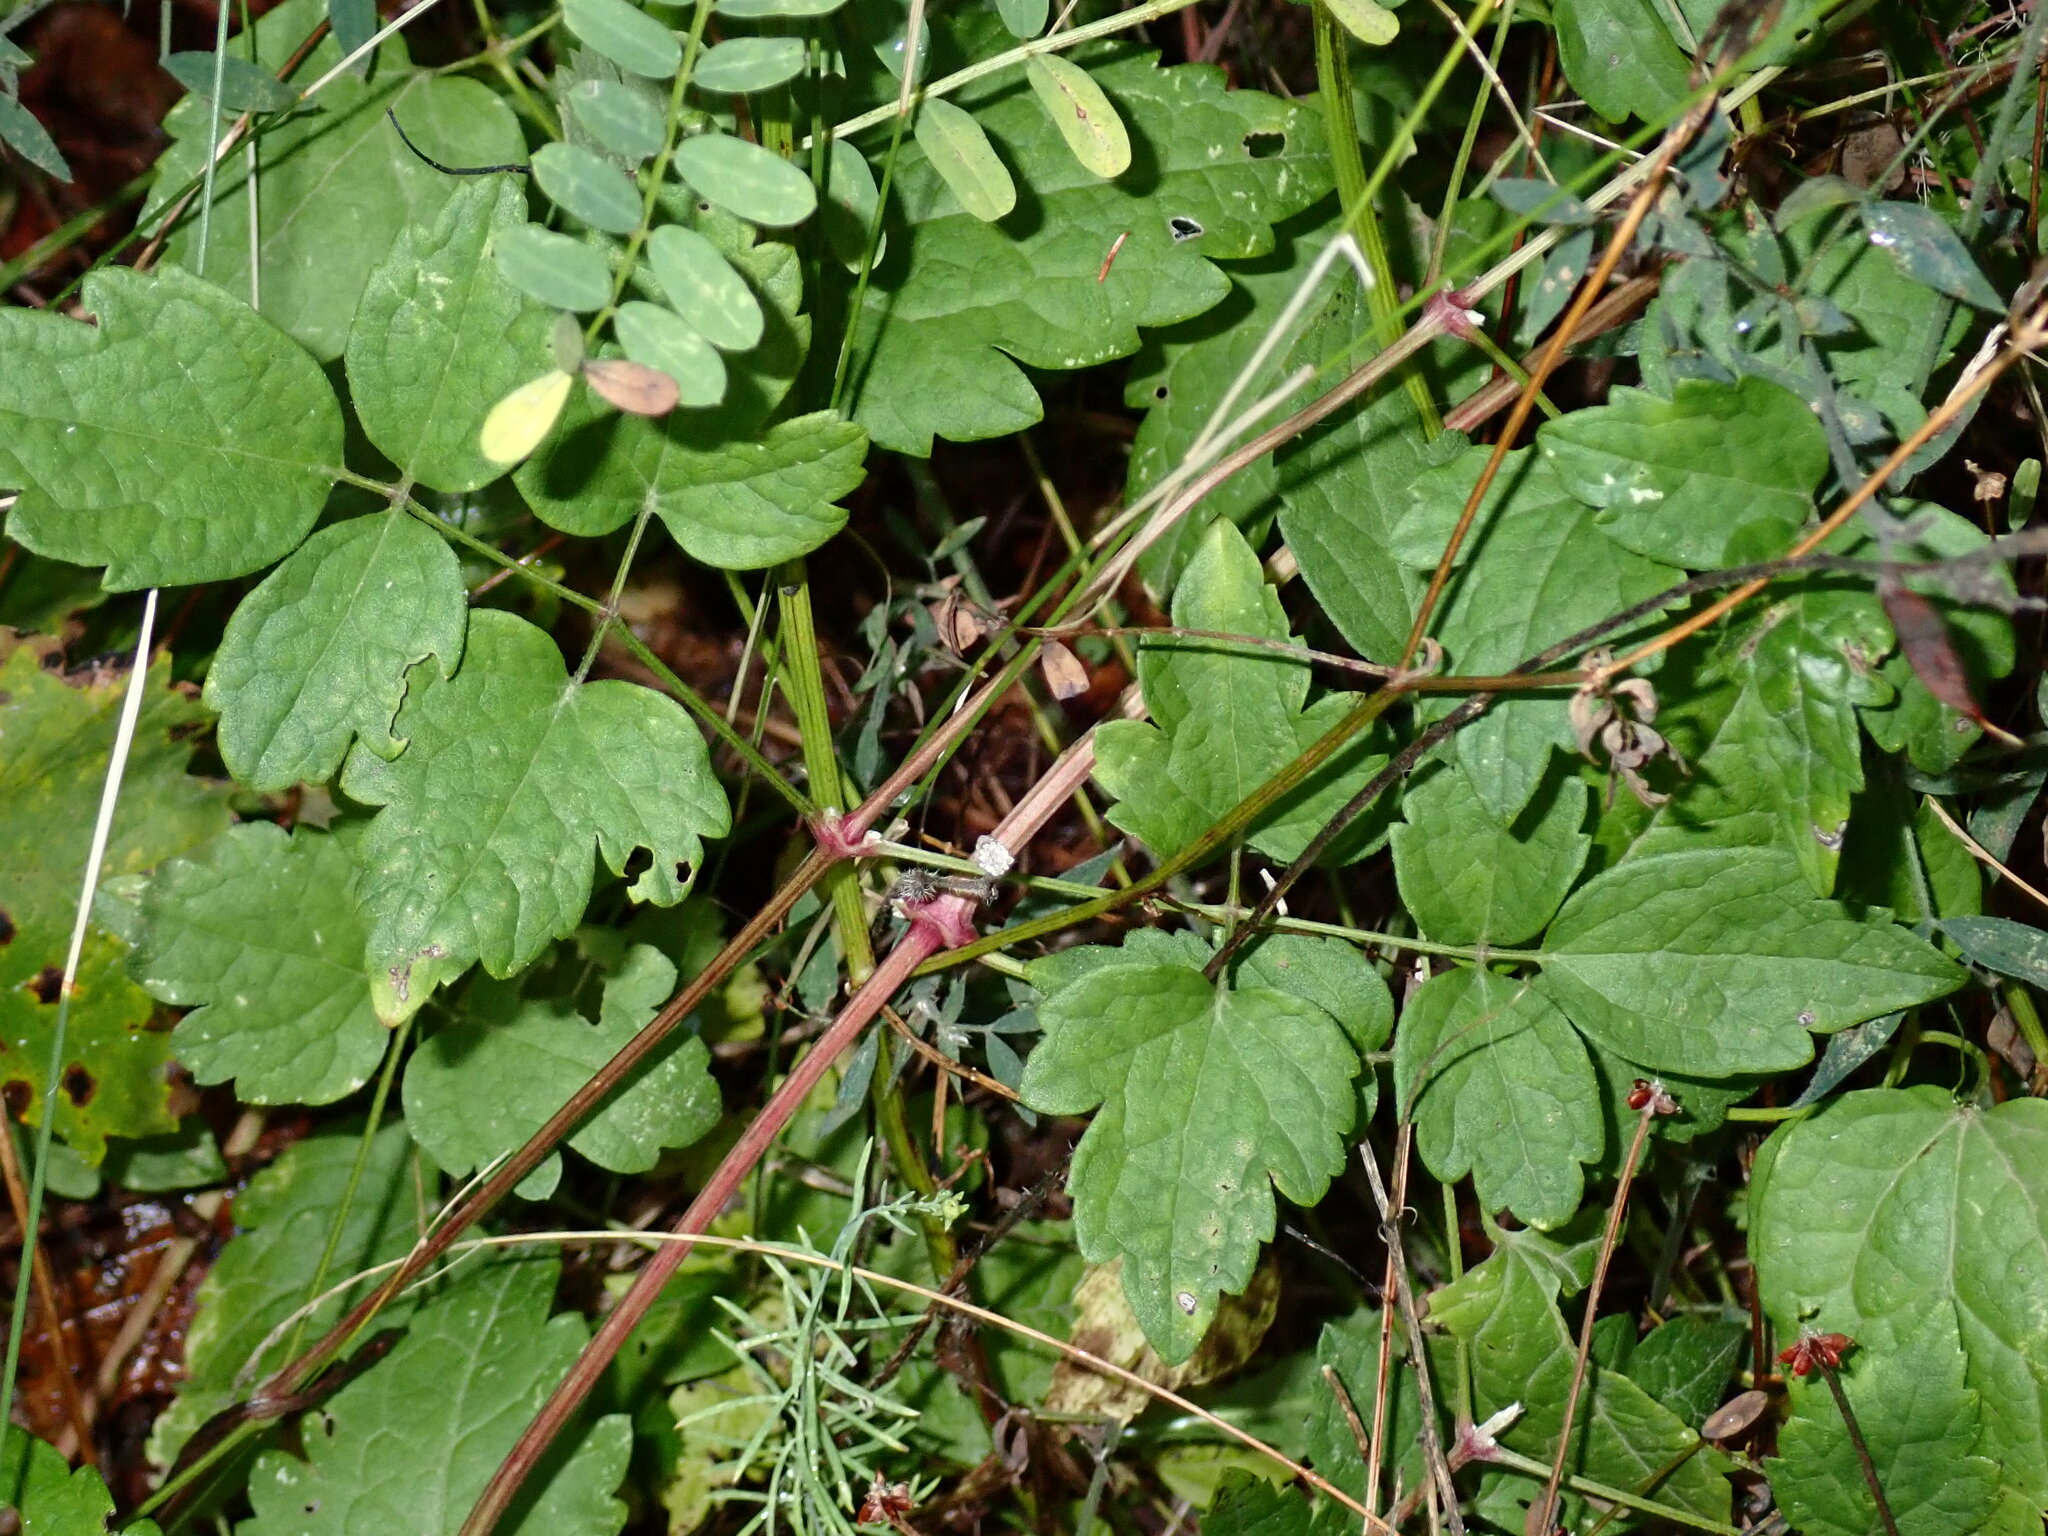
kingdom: Plantae
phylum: Tracheophyta
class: Magnoliopsida
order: Ranunculales
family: Ranunculaceae
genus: Clematis
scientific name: Clematis vitalba
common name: Evergreen clematis
